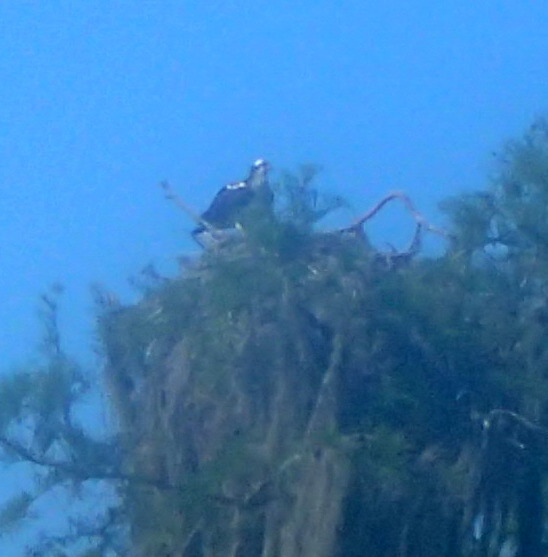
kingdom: Animalia
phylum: Chordata
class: Aves
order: Accipitriformes
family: Pandionidae
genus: Pandion
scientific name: Pandion haliaetus
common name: Osprey
